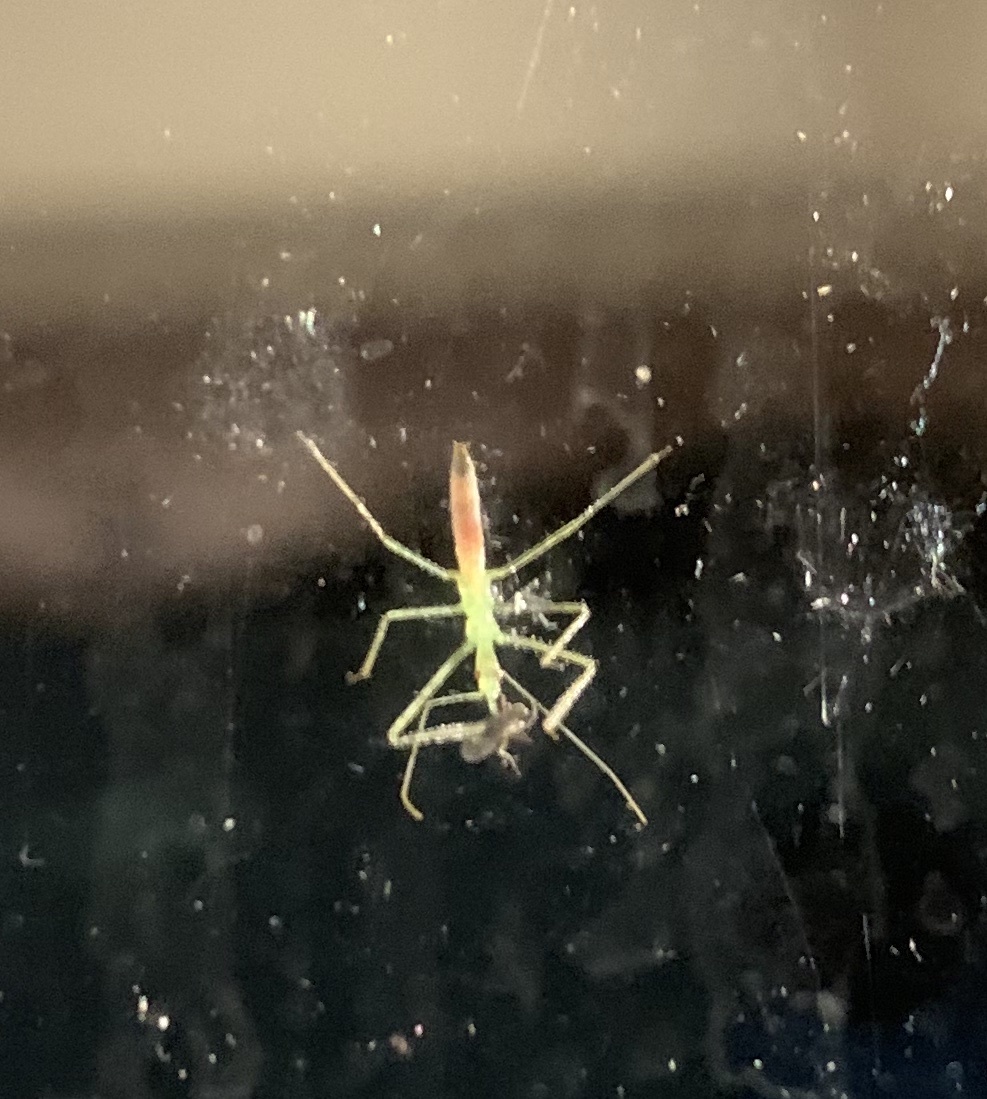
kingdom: Animalia
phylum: Arthropoda
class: Insecta
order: Hemiptera
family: Reduviidae
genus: Zelus
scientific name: Zelus luridus
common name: Pale green assassin bug
